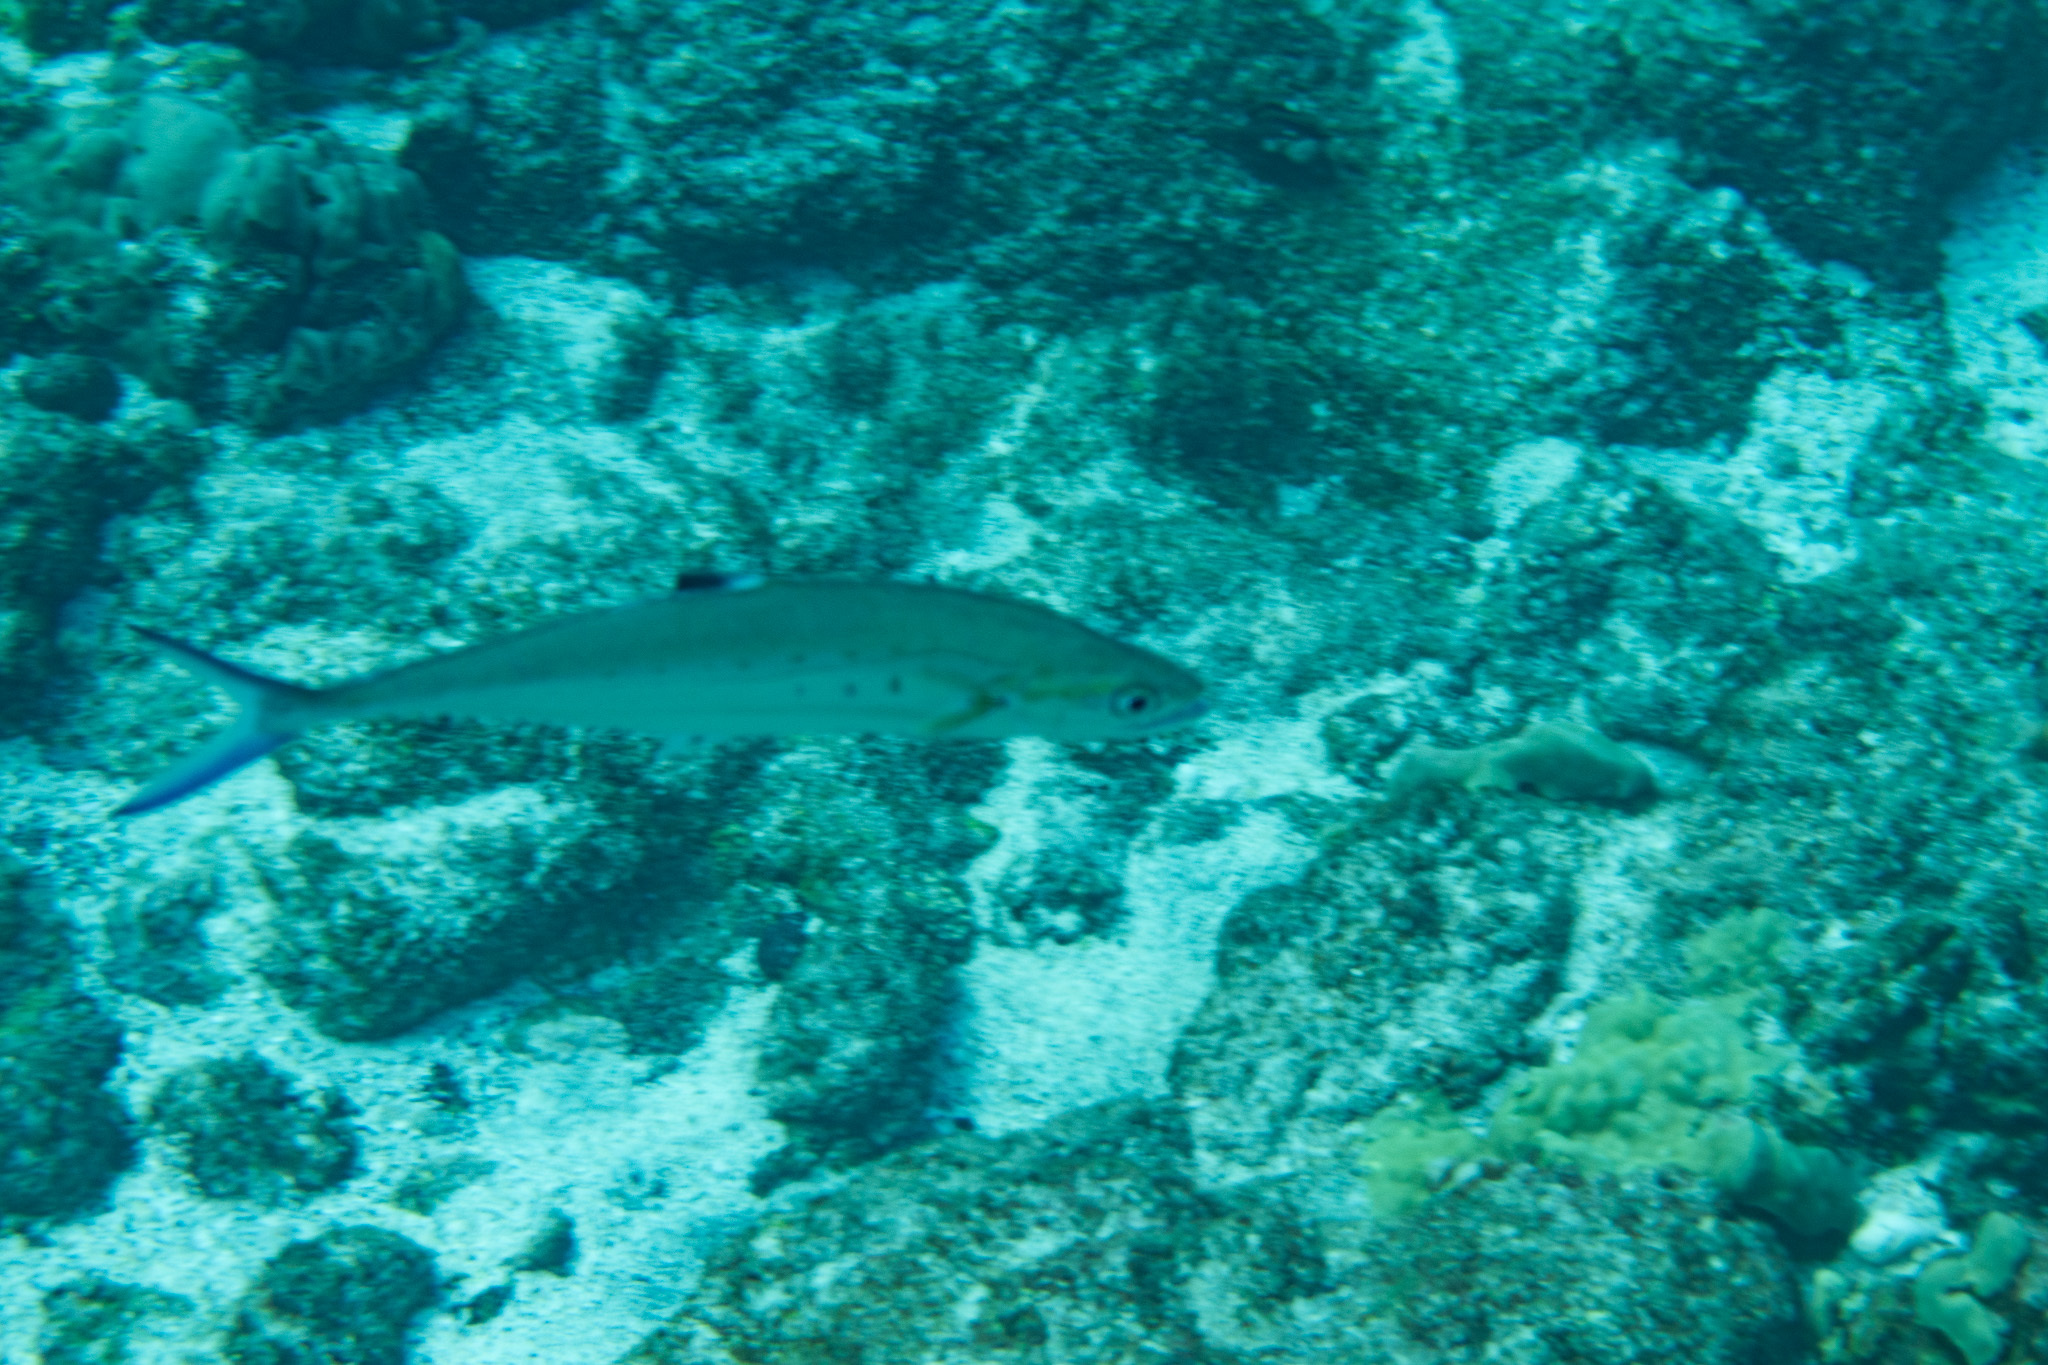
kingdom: Animalia
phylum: Chordata
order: Perciformes
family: Carangidae
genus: Scomberoides
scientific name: Scomberoides lysan
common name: Doublespotted queenfish
